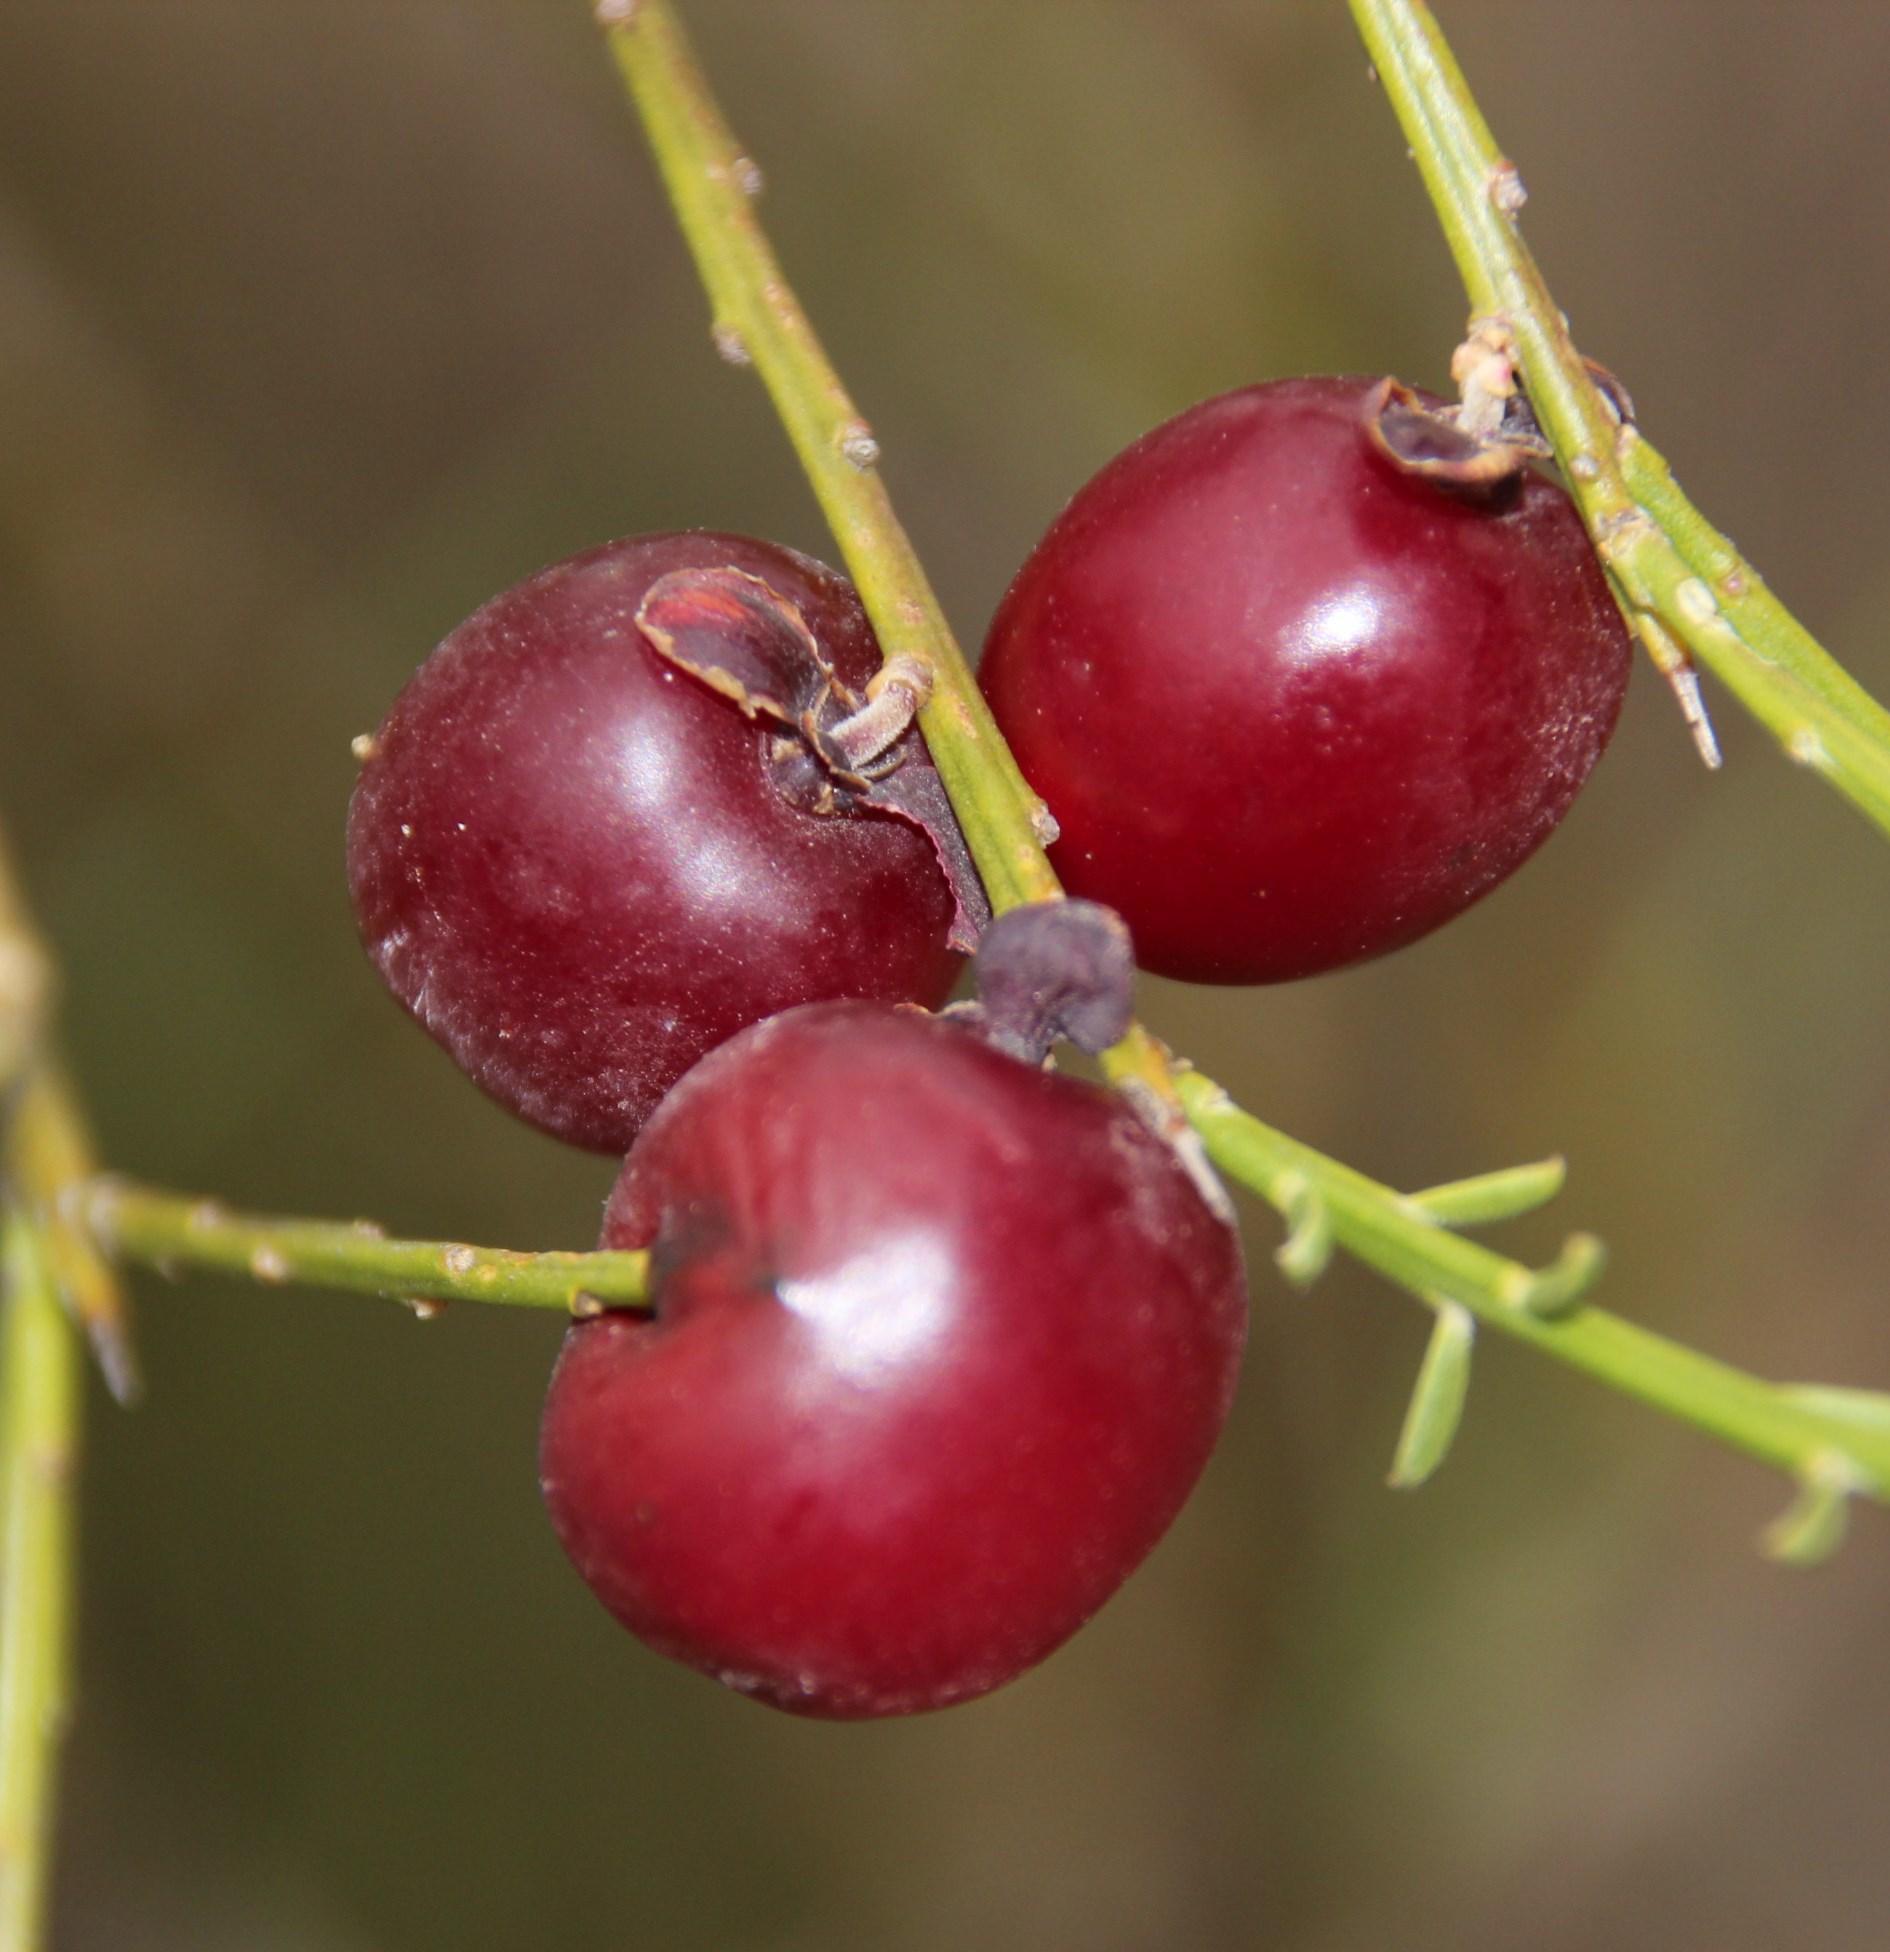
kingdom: Plantae
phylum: Tracheophyta
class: Magnoliopsida
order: Fabales
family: Polygalaceae
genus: Muraltia
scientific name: Muraltia scoparia
